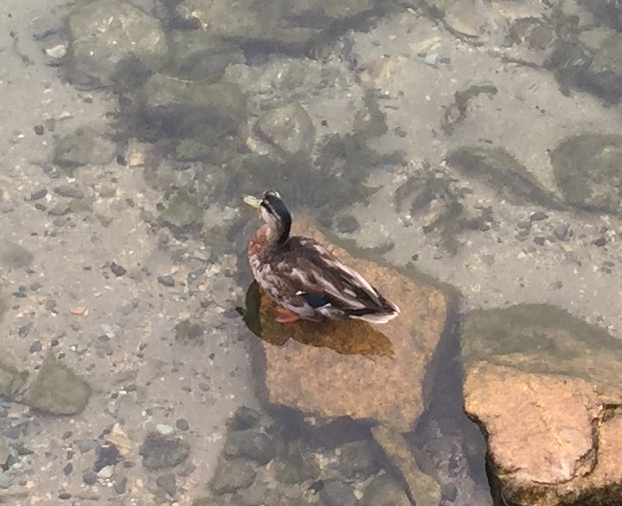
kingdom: Animalia
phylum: Chordata
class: Aves
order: Anseriformes
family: Anatidae
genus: Anas
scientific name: Anas platyrhynchos
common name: Mallard
